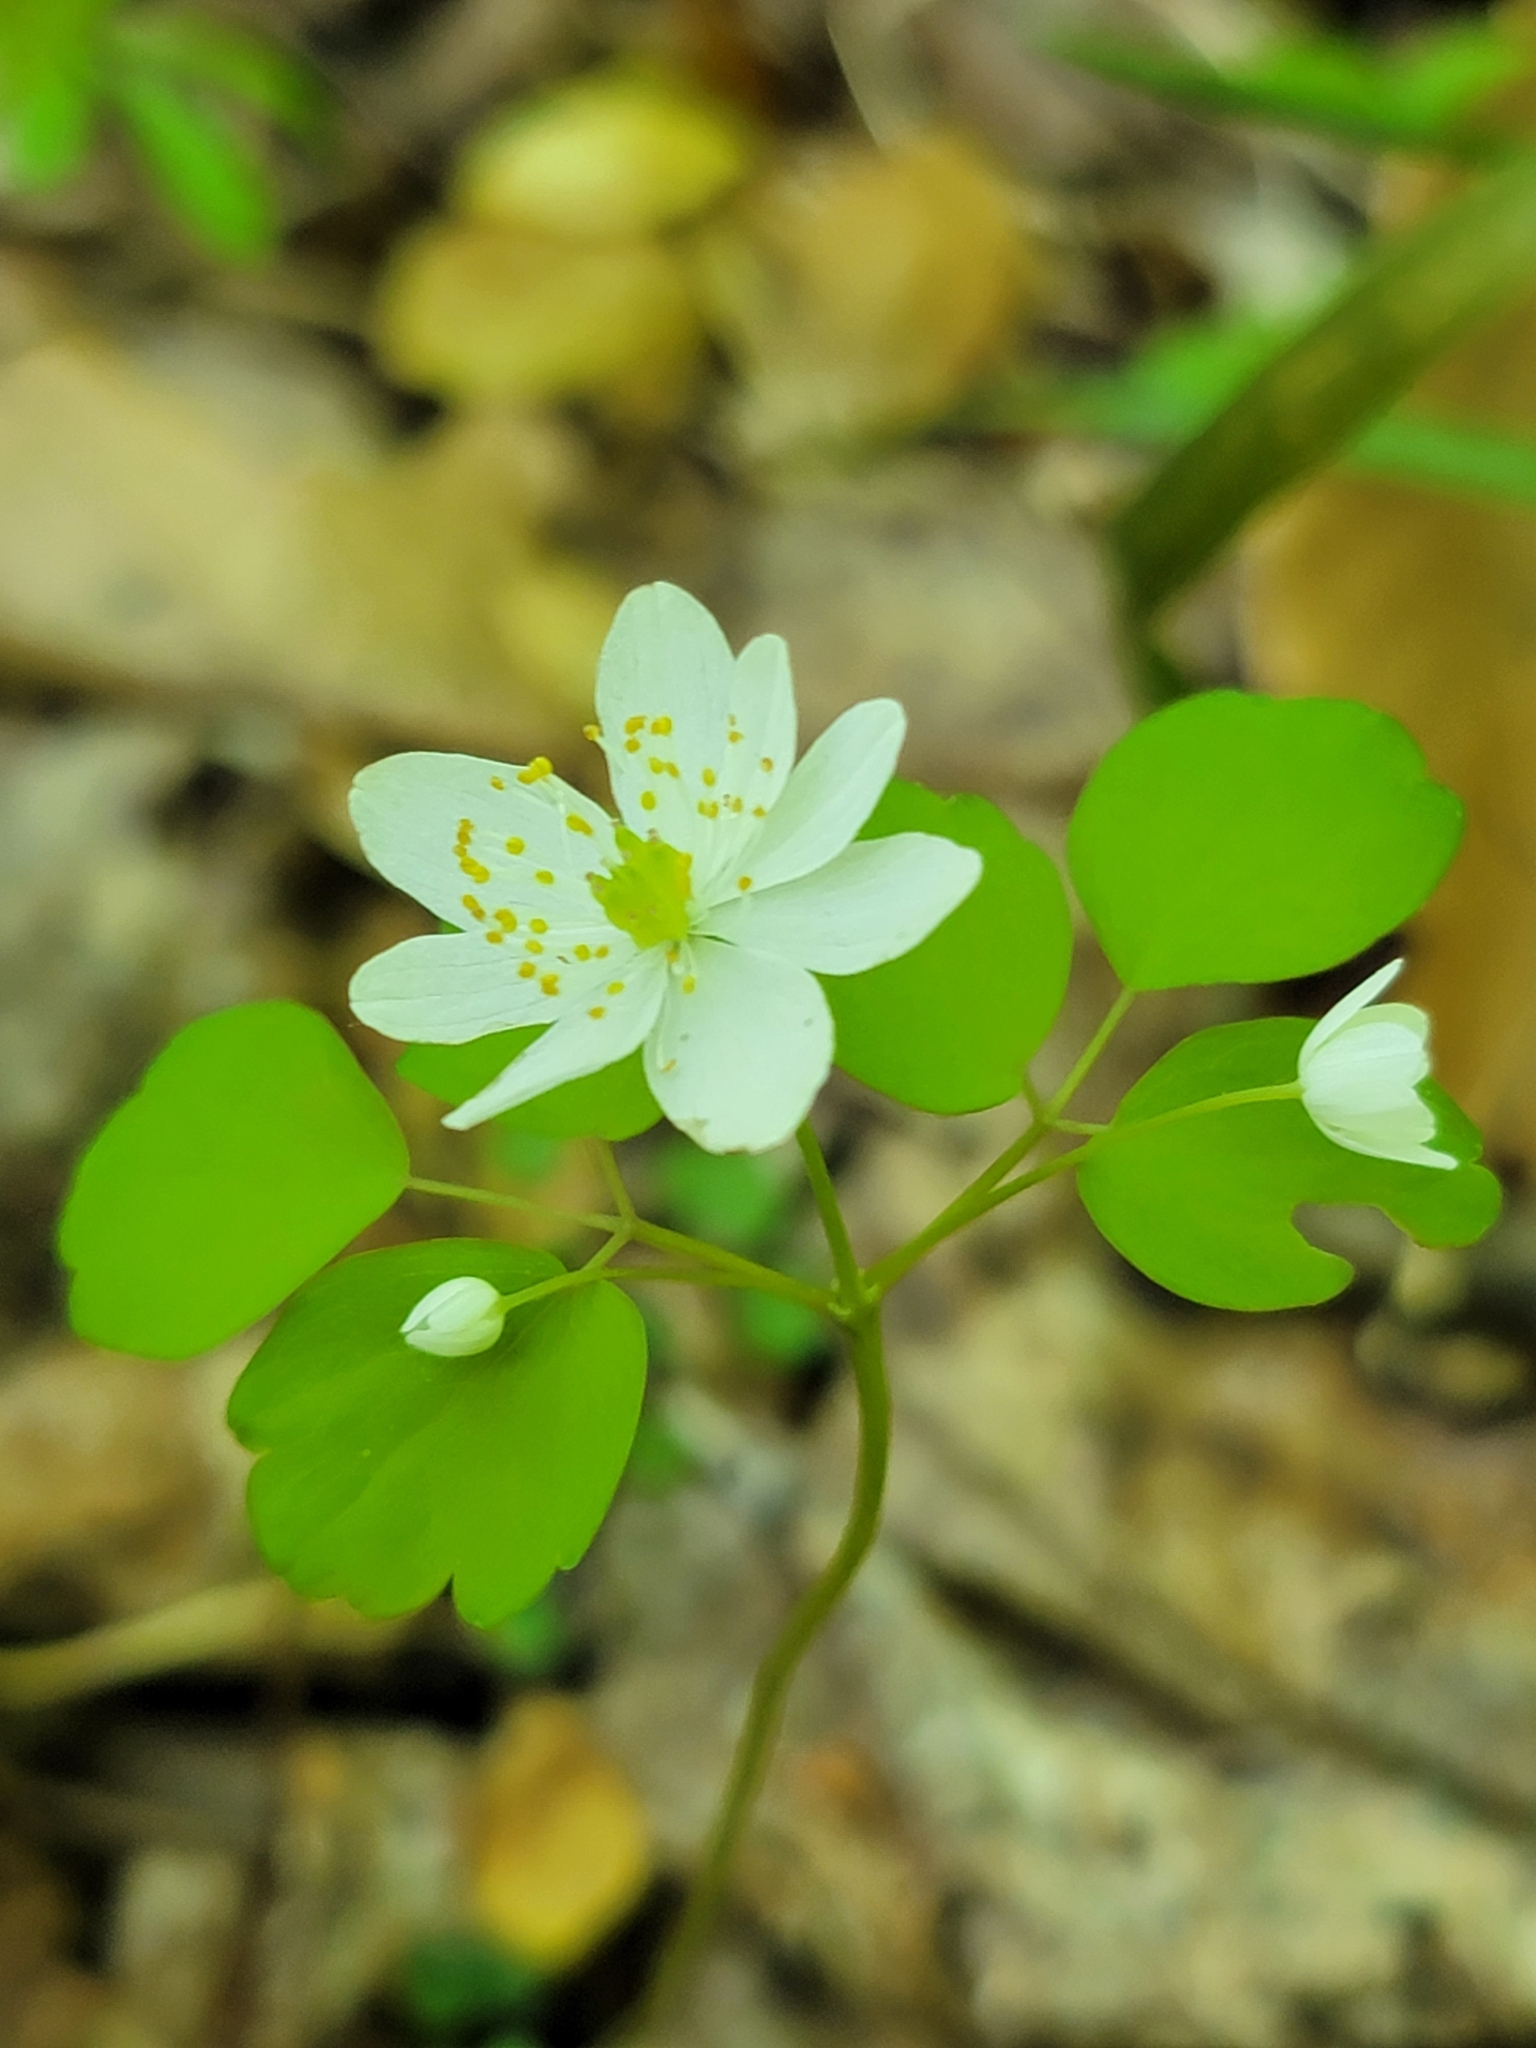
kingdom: Plantae
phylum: Tracheophyta
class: Magnoliopsida
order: Ranunculales
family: Ranunculaceae
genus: Thalictrum
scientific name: Thalictrum thalictroides
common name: Rue-anemone
